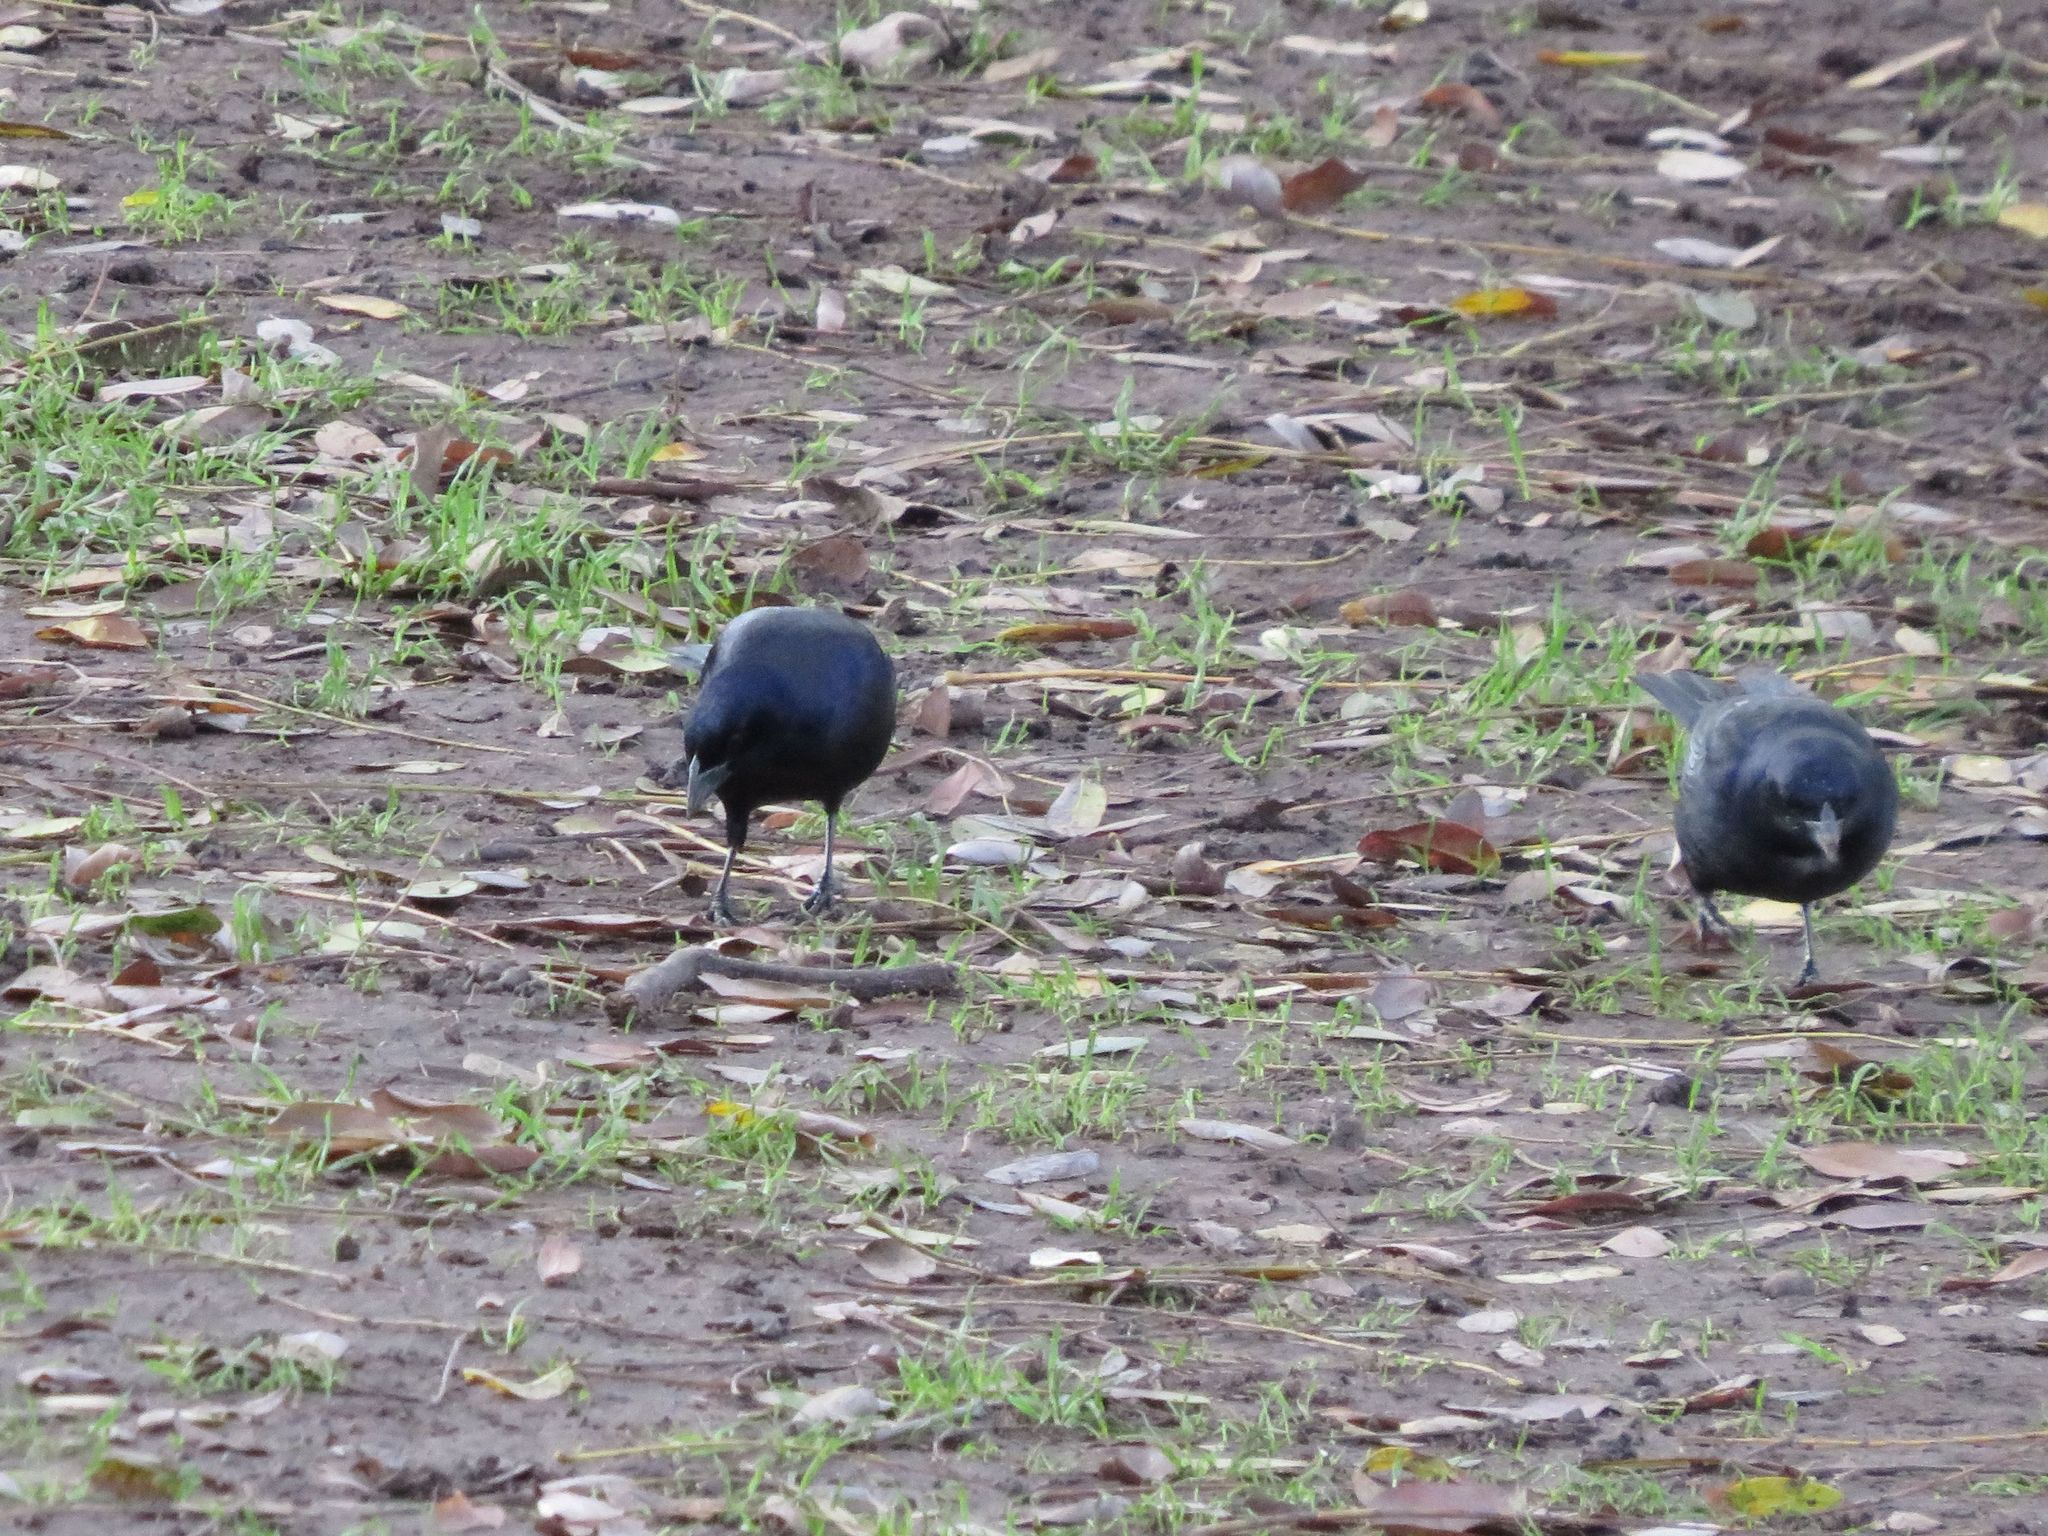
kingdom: Animalia
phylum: Chordata
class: Aves
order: Passeriformes
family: Icteridae
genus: Molothrus
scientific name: Molothrus bonariensis
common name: Shiny cowbird
